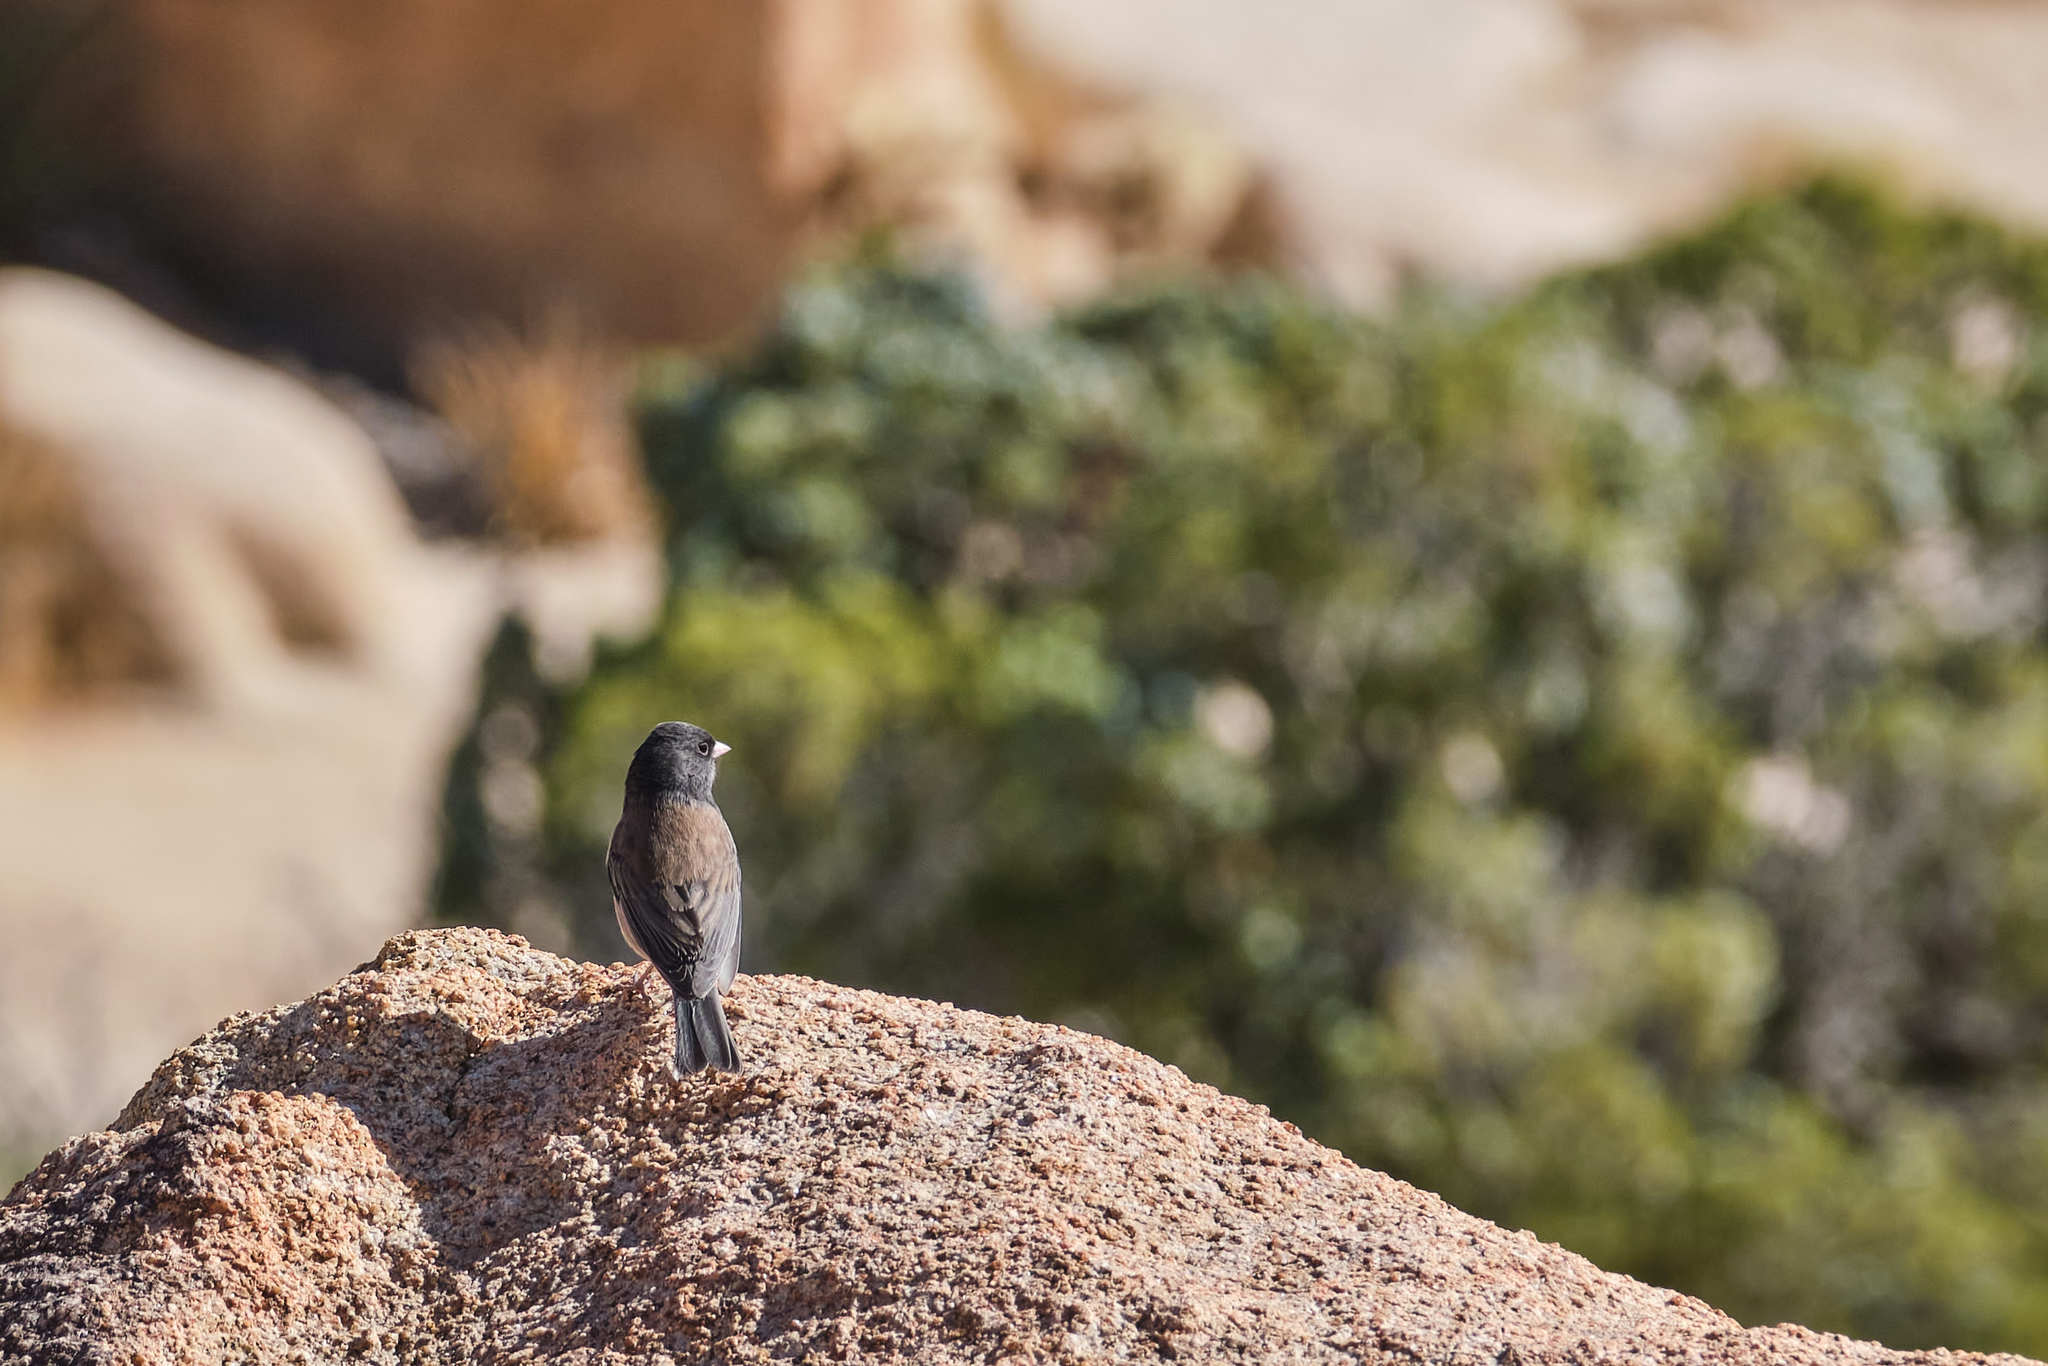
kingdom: Animalia
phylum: Chordata
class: Aves
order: Passeriformes
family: Passerellidae
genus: Junco
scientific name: Junco hyemalis
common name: Dark-eyed junco
